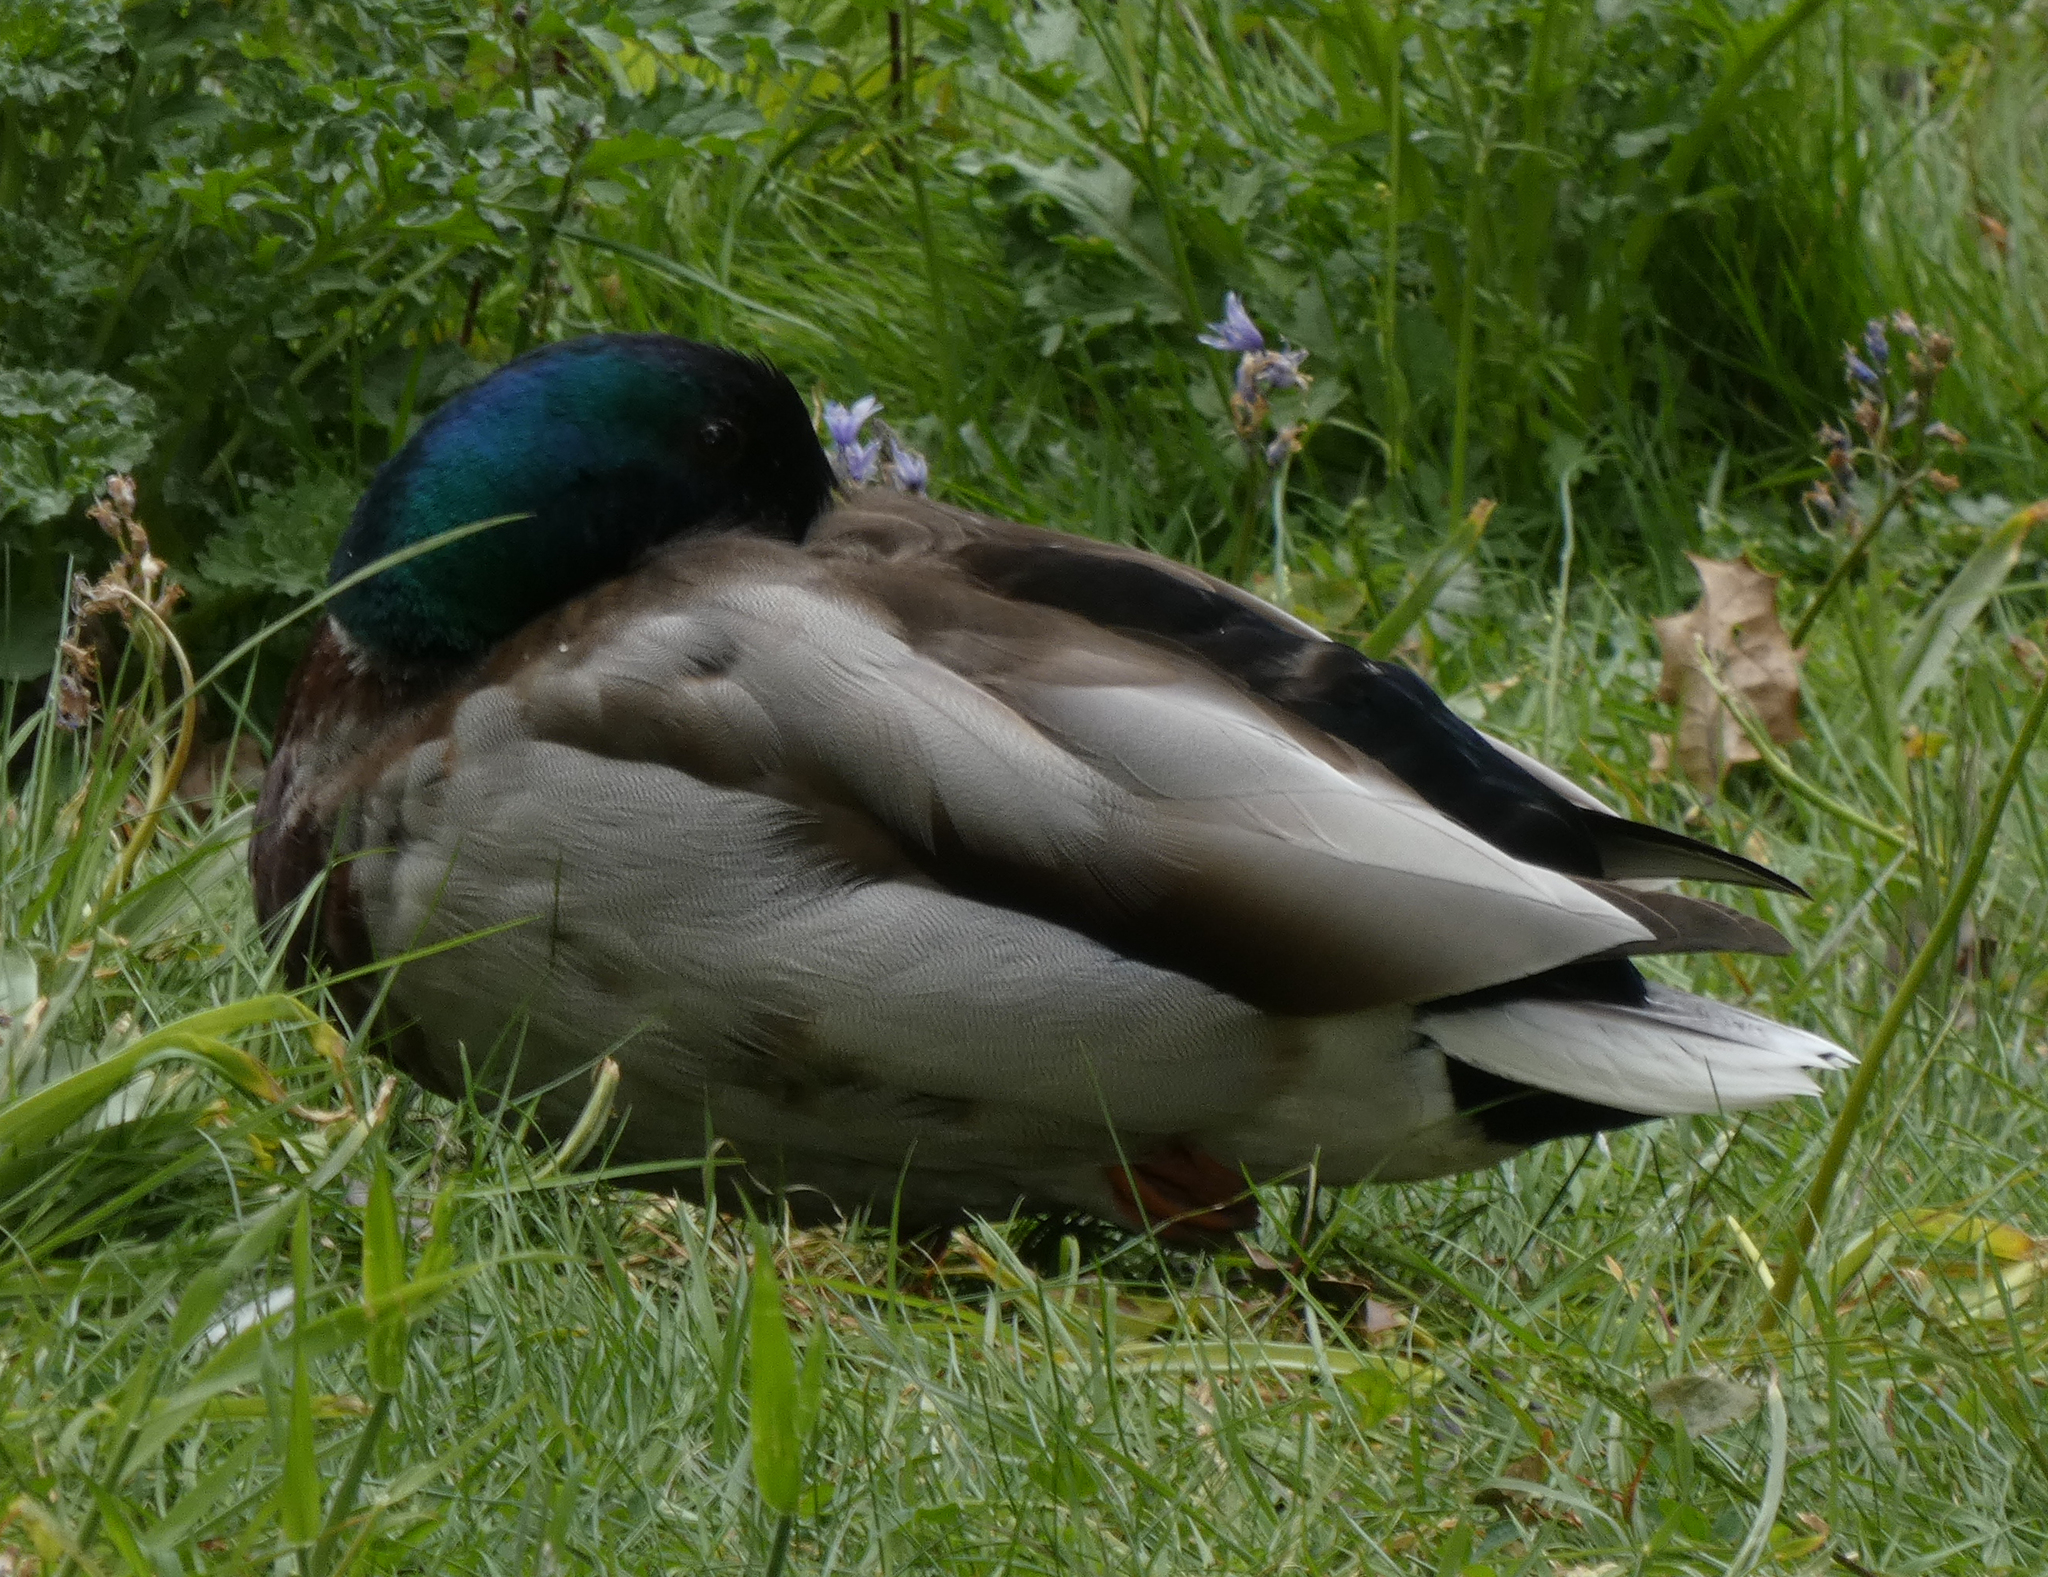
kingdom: Animalia
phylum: Chordata
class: Aves
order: Anseriformes
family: Anatidae
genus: Anas
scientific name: Anas platyrhynchos
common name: Mallard
